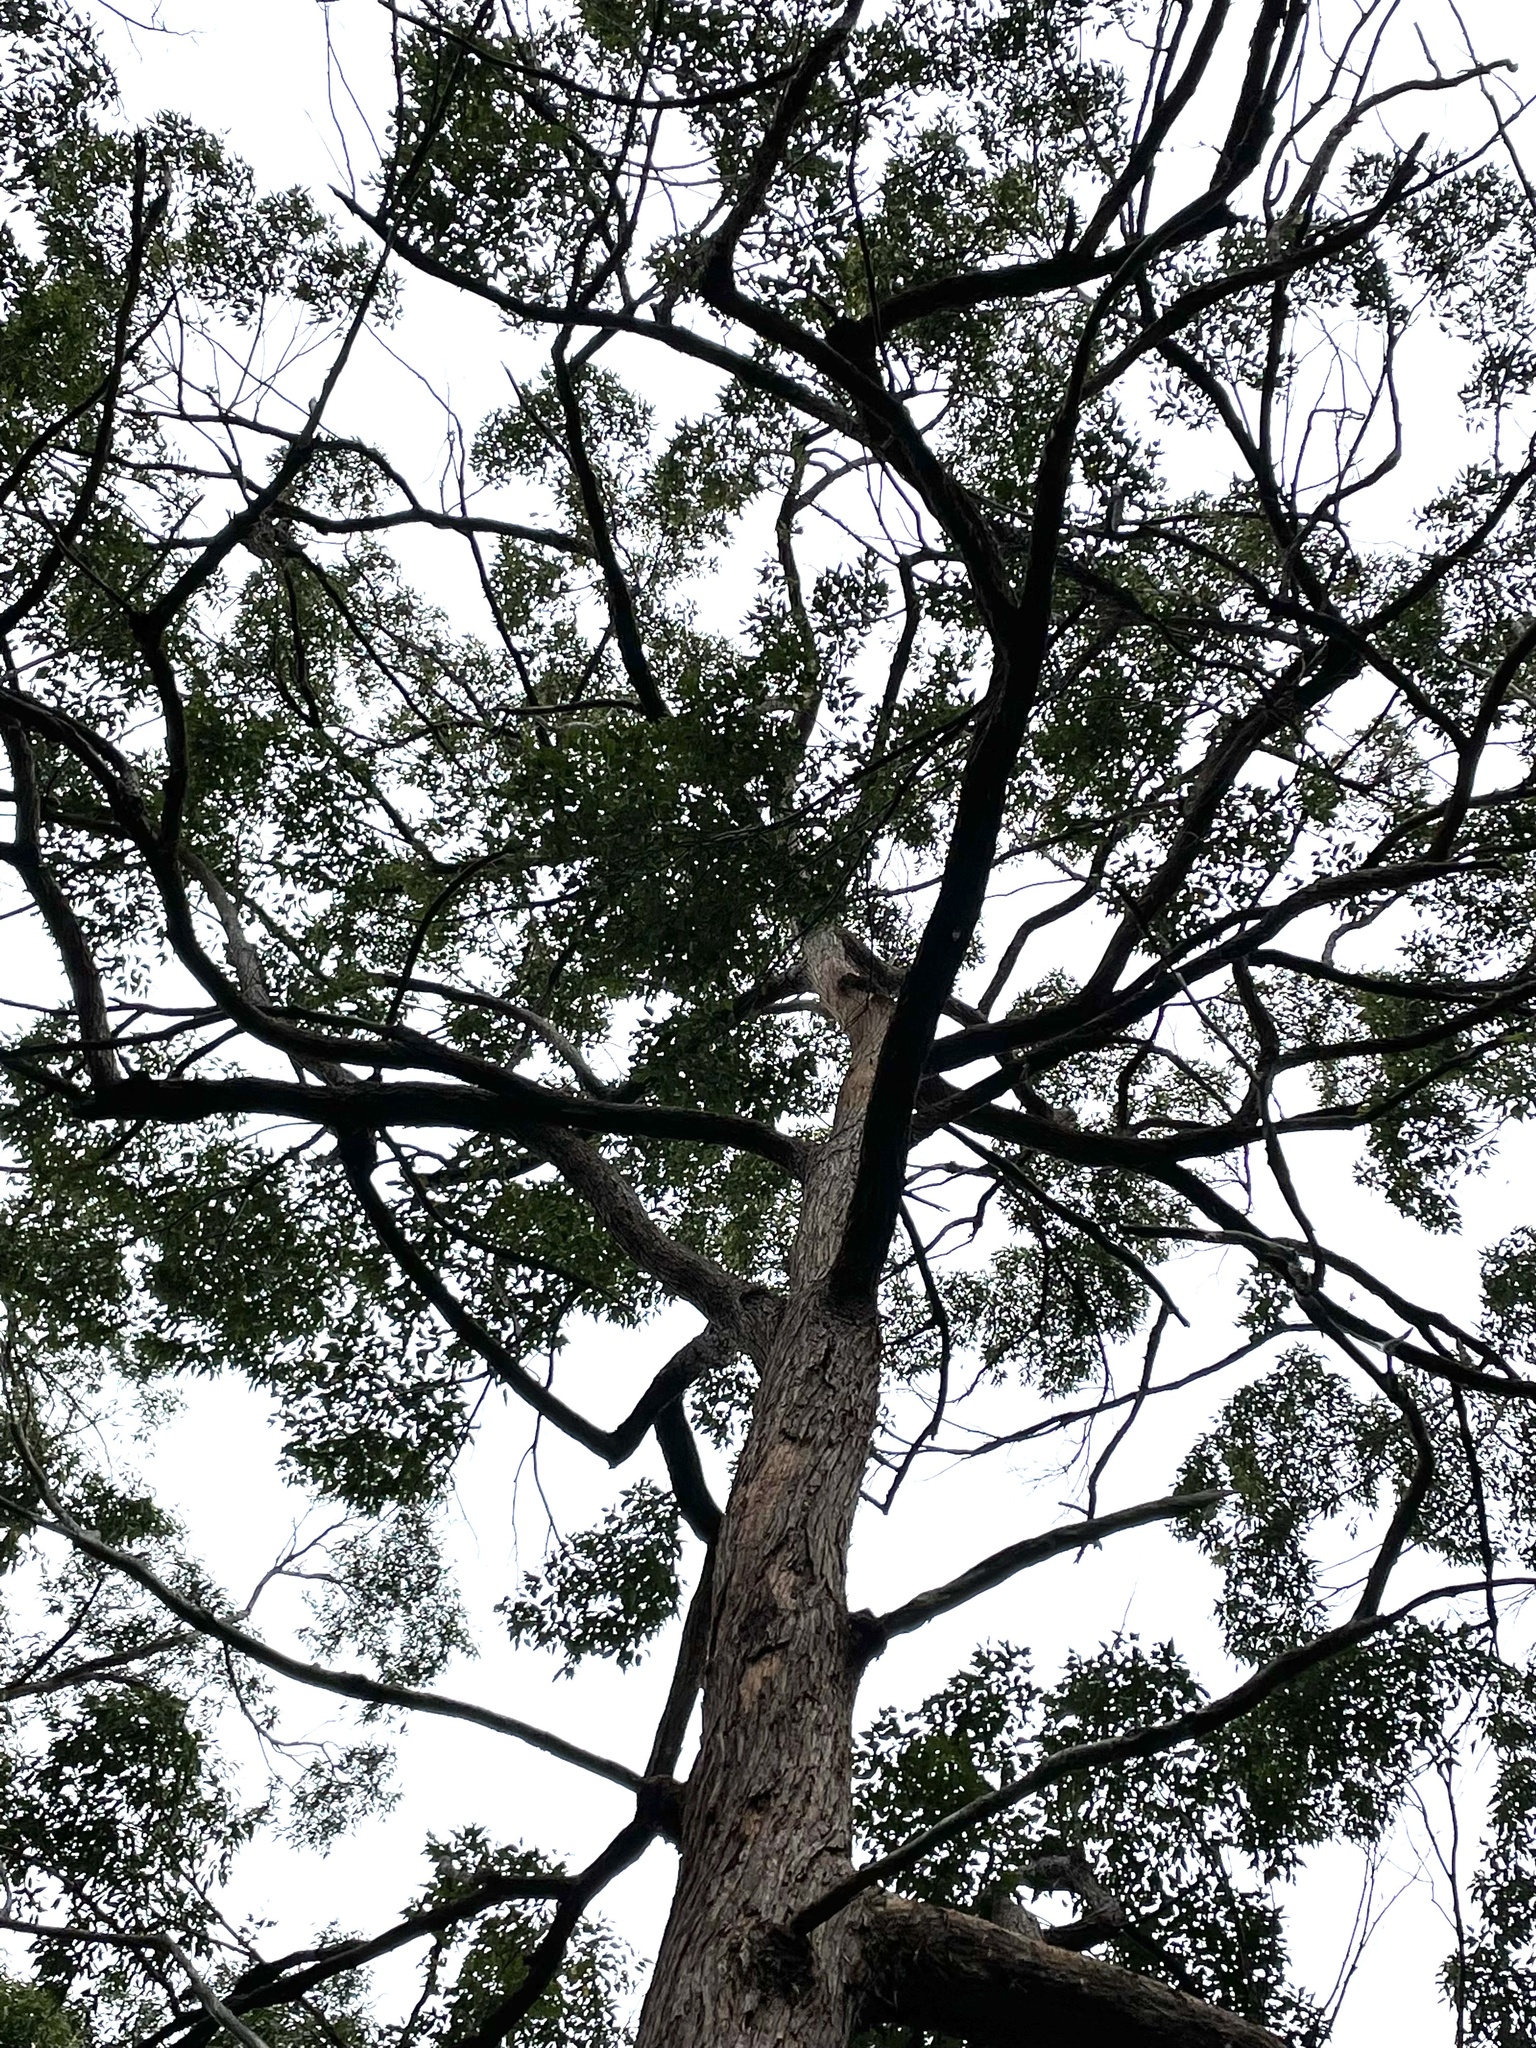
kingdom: Plantae
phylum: Tracheophyta
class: Magnoliopsida
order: Myrtales
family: Myrtaceae
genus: Eucalyptus
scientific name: Eucalyptus microcorys
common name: Tallowwood
